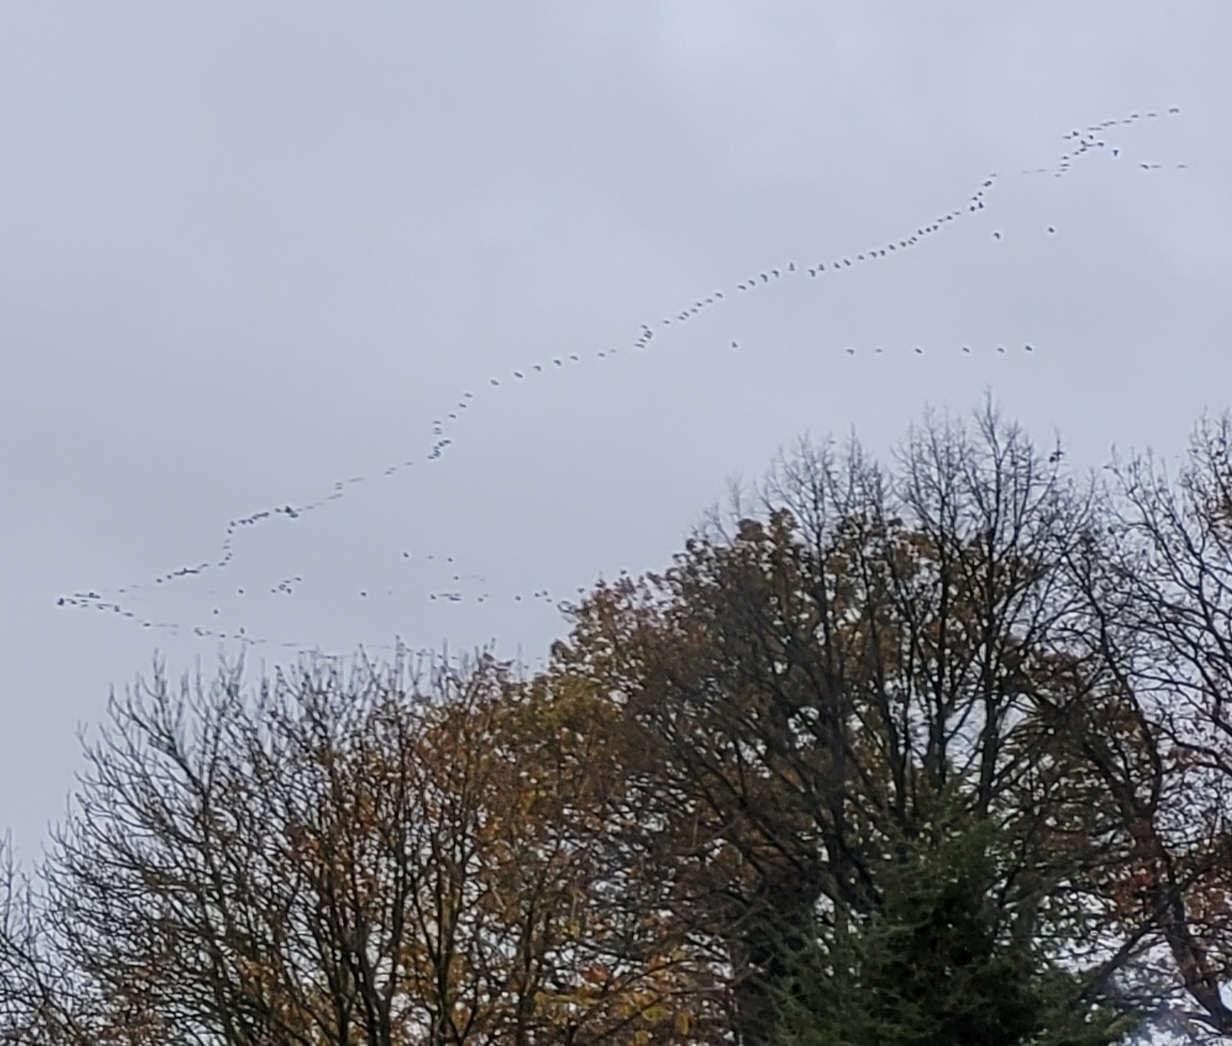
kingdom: Animalia
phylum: Chordata
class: Aves
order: Gruiformes
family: Gruidae
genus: Grus
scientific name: Grus grus
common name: Common crane
